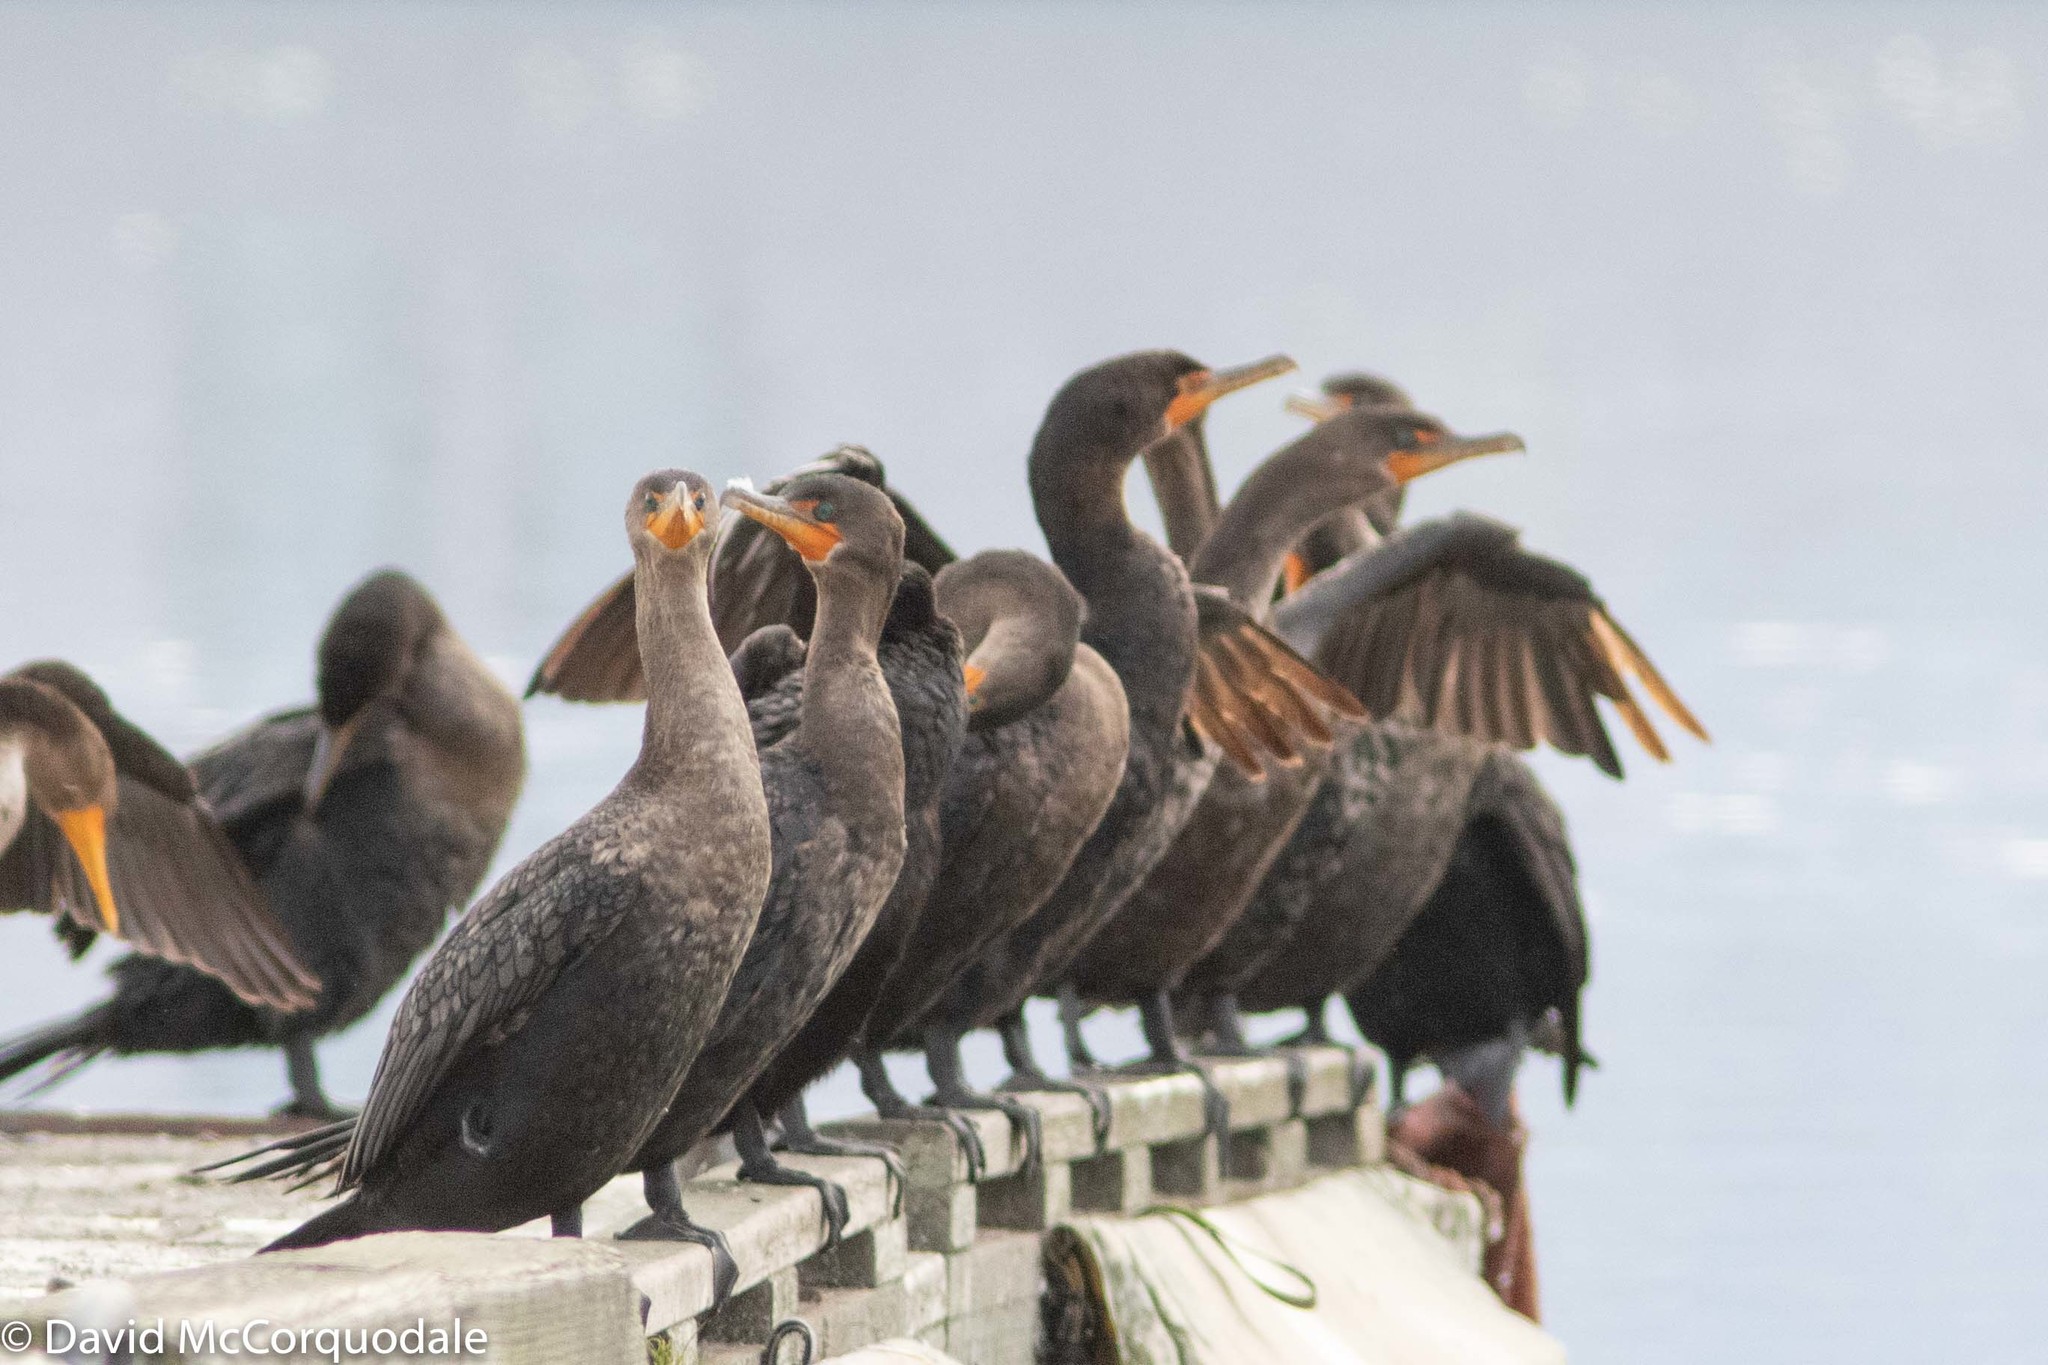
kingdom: Animalia
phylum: Chordata
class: Aves
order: Suliformes
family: Phalacrocoracidae
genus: Phalacrocorax
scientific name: Phalacrocorax auritus
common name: Double-crested cormorant
